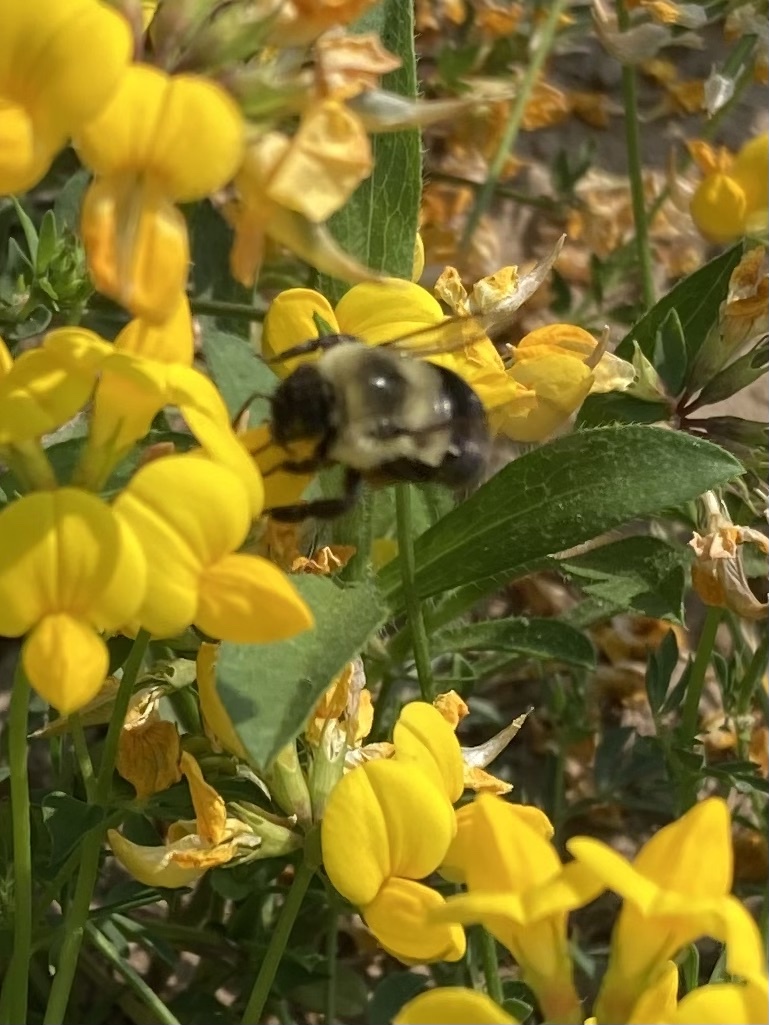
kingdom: Animalia
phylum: Arthropoda
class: Insecta
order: Hymenoptera
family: Apidae
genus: Bombus
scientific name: Bombus impatiens
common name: Common eastern bumble bee
